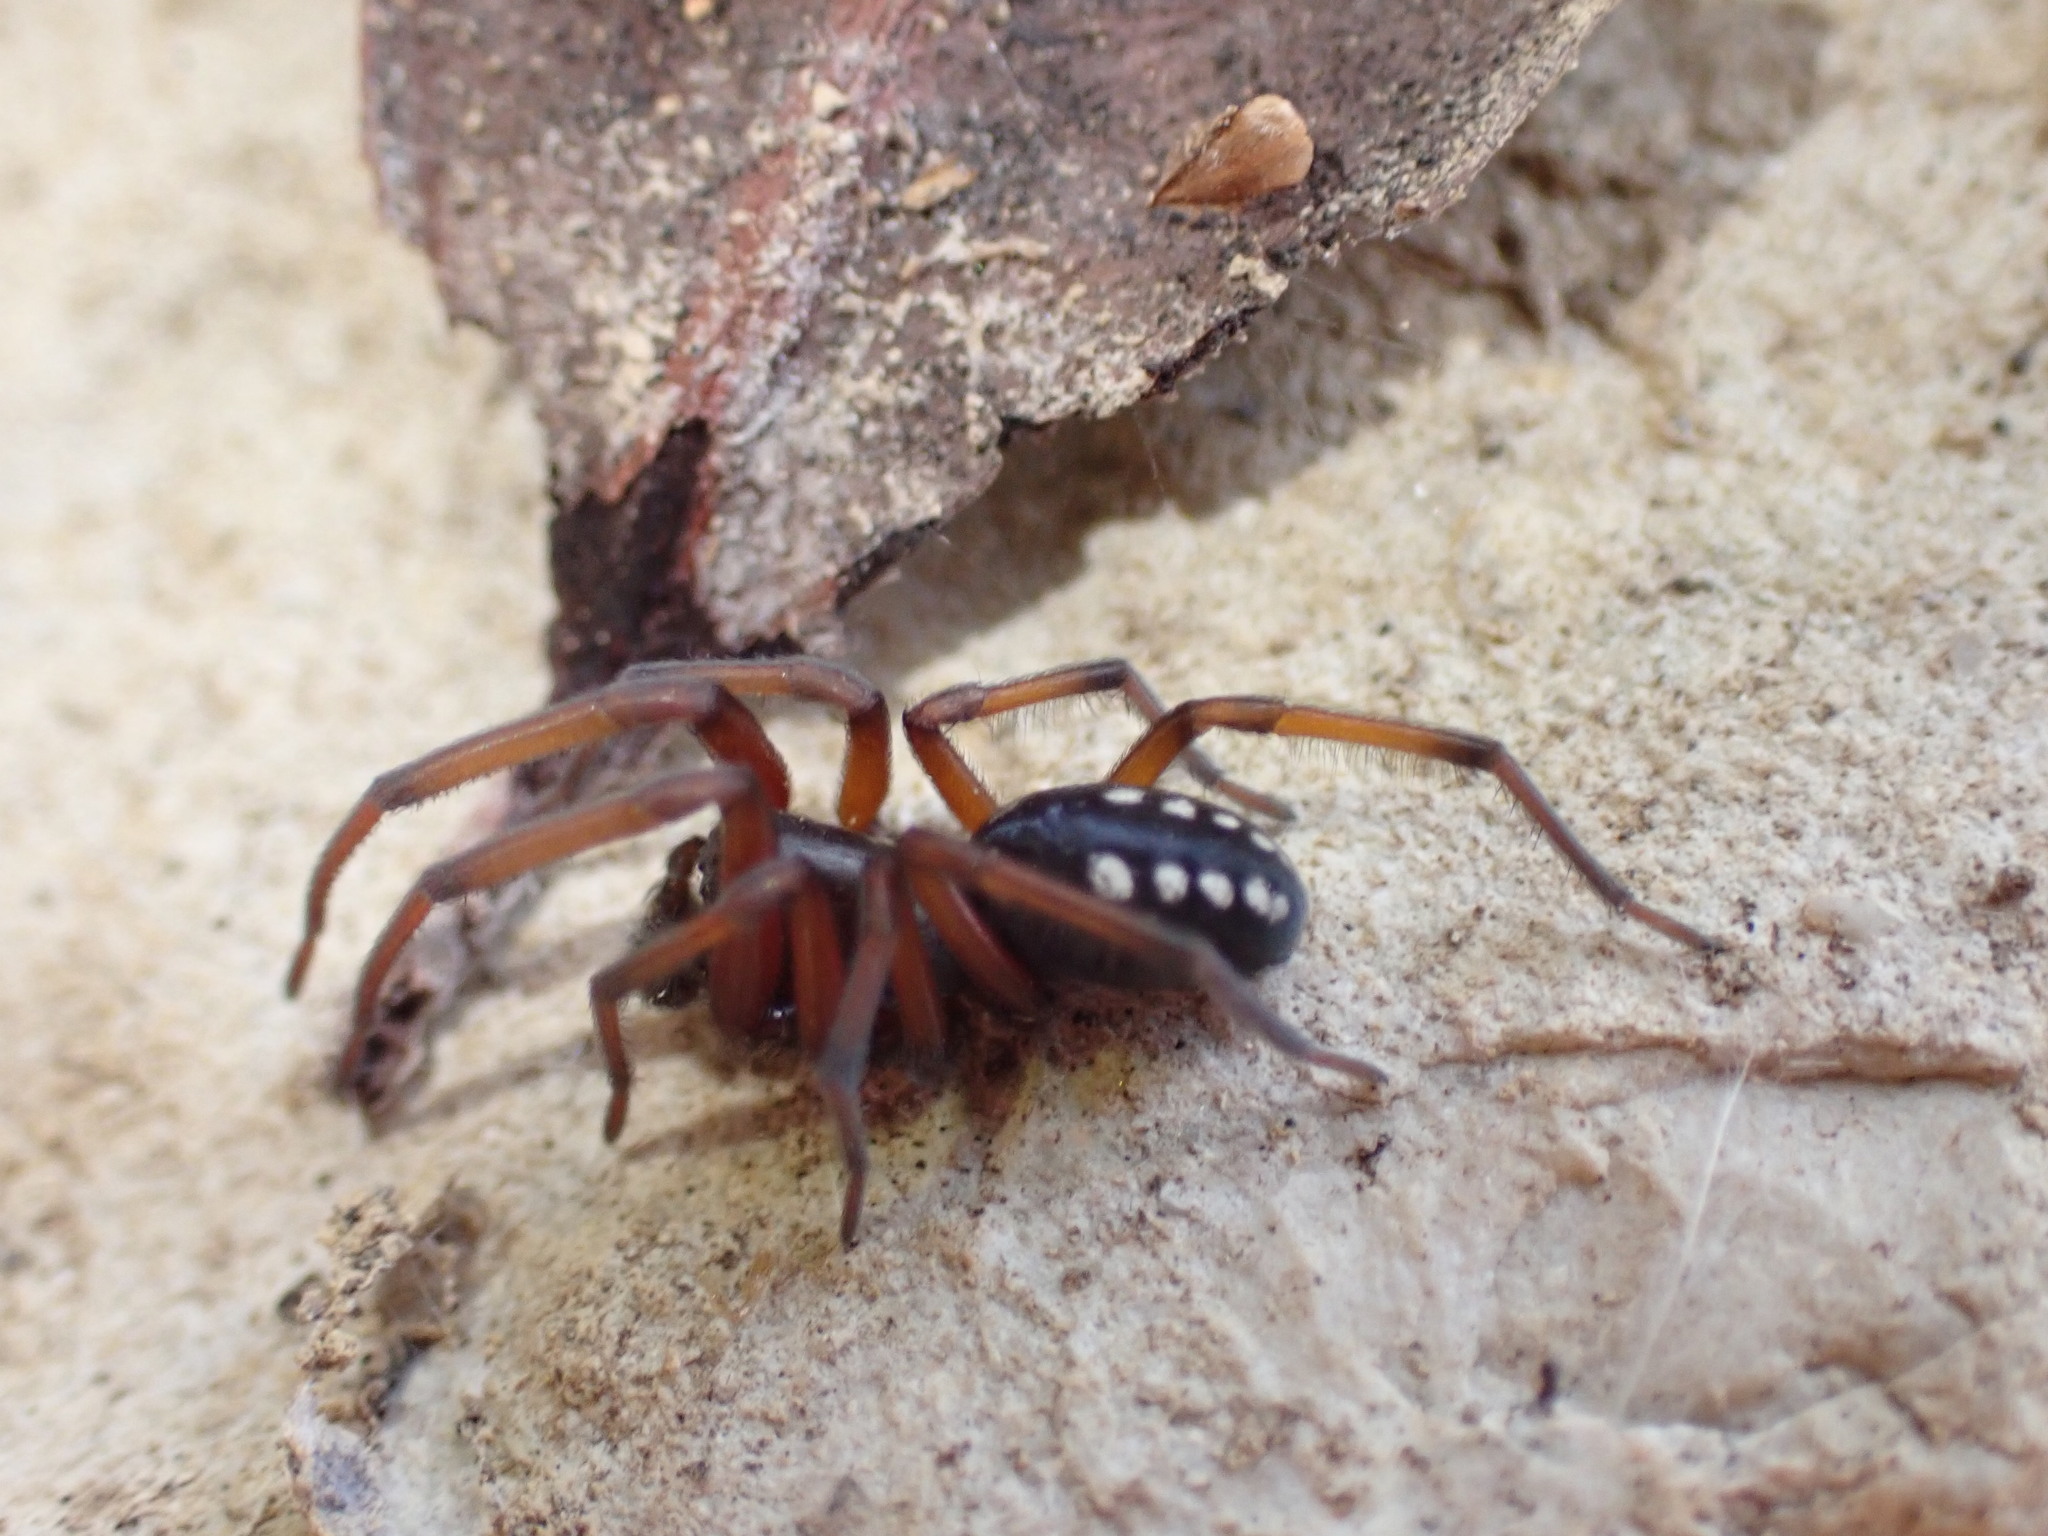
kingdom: Animalia
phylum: Arthropoda
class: Arachnida
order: Araneae
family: Titanoecidae
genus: Nurscia
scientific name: Nurscia albomaculata
